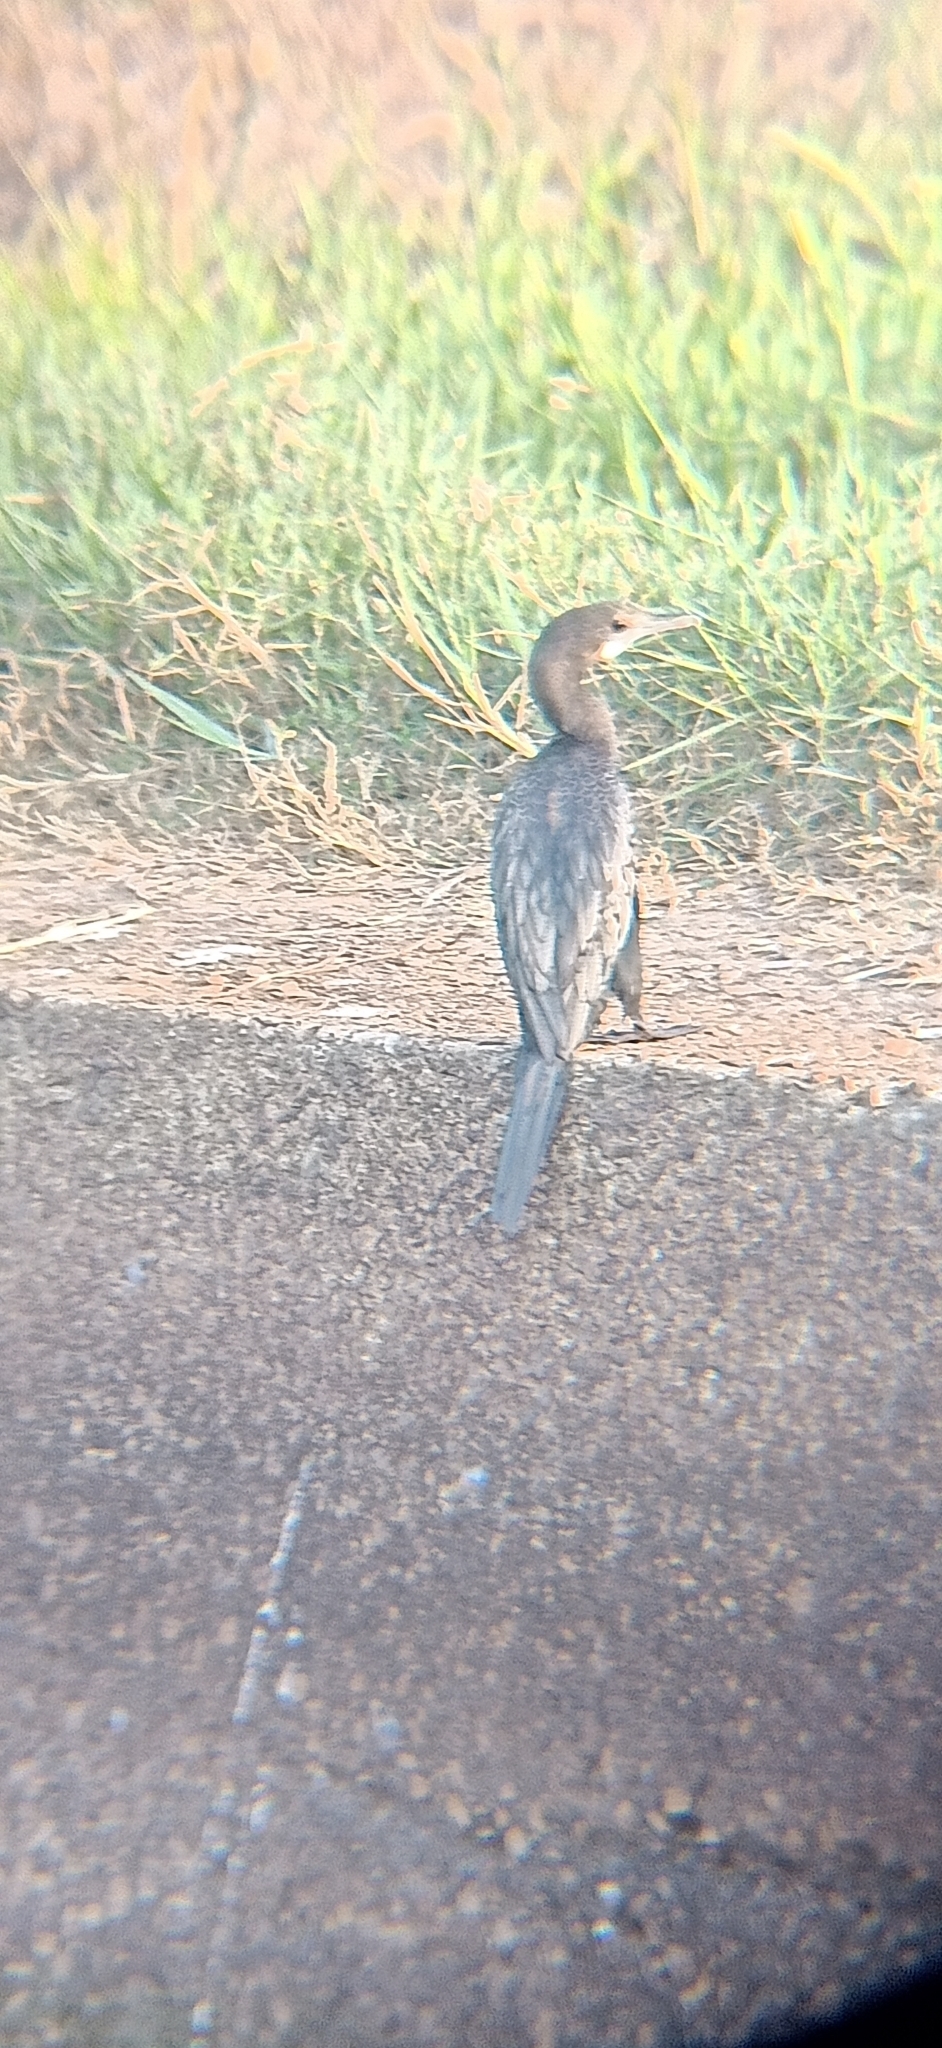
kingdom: Animalia
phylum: Chordata
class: Aves
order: Suliformes
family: Phalacrocoracidae
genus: Microcarbo
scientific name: Microcarbo niger
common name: Little cormorant
